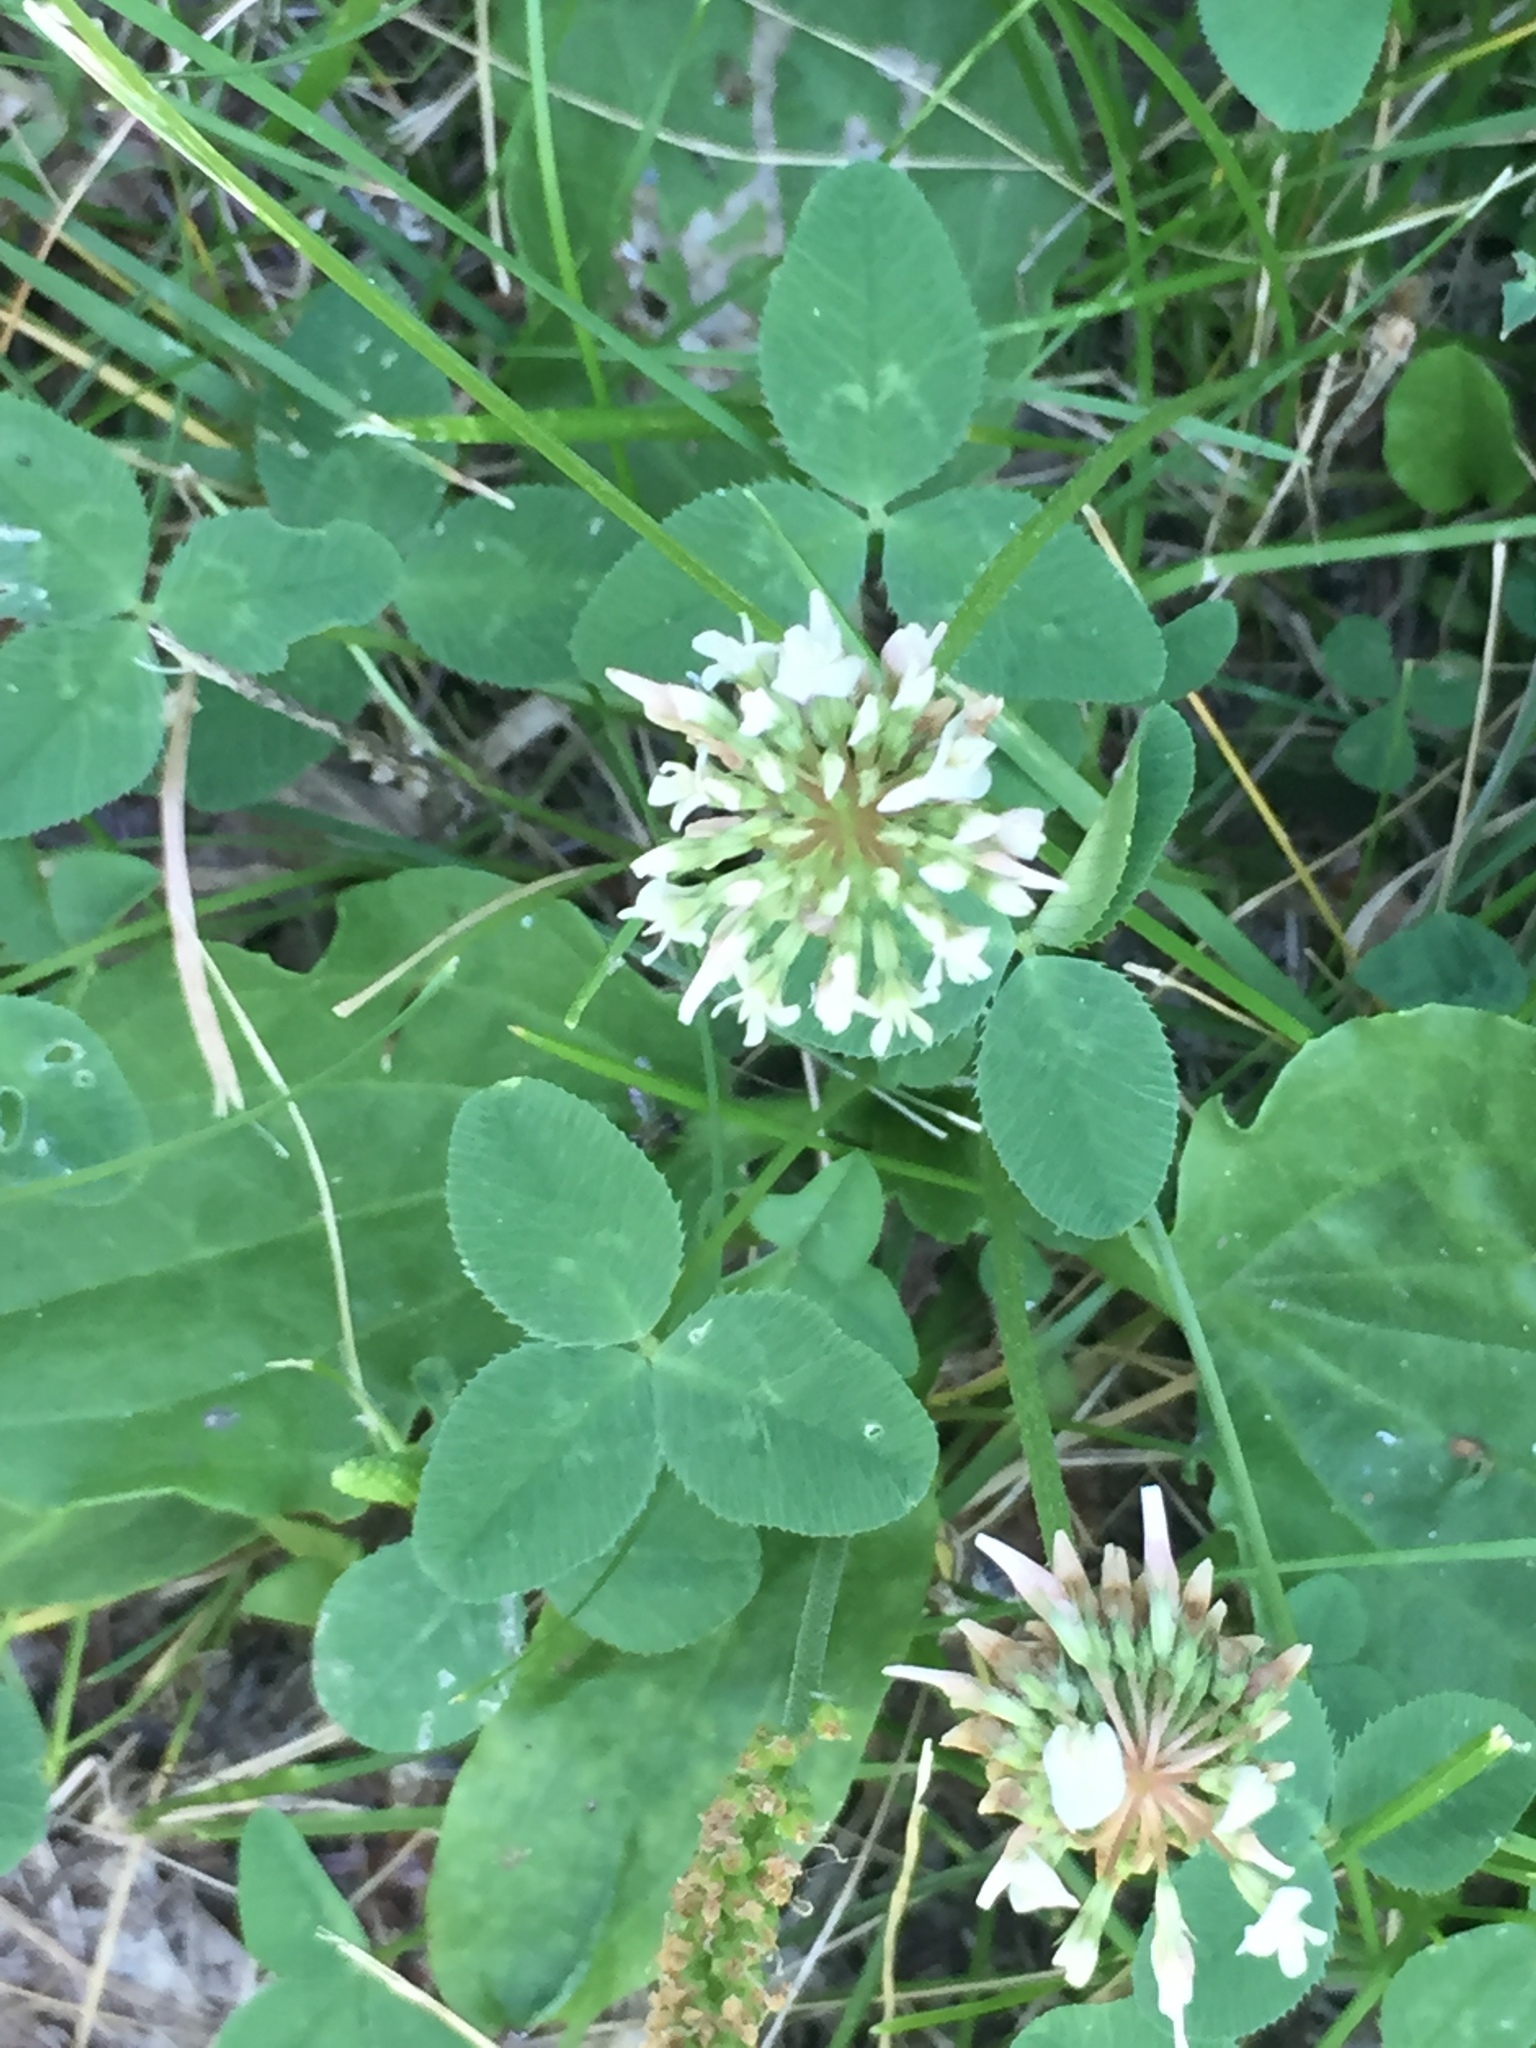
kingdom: Plantae
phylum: Tracheophyta
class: Magnoliopsida
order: Fabales
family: Fabaceae
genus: Trifolium
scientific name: Trifolium repens
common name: White clover
